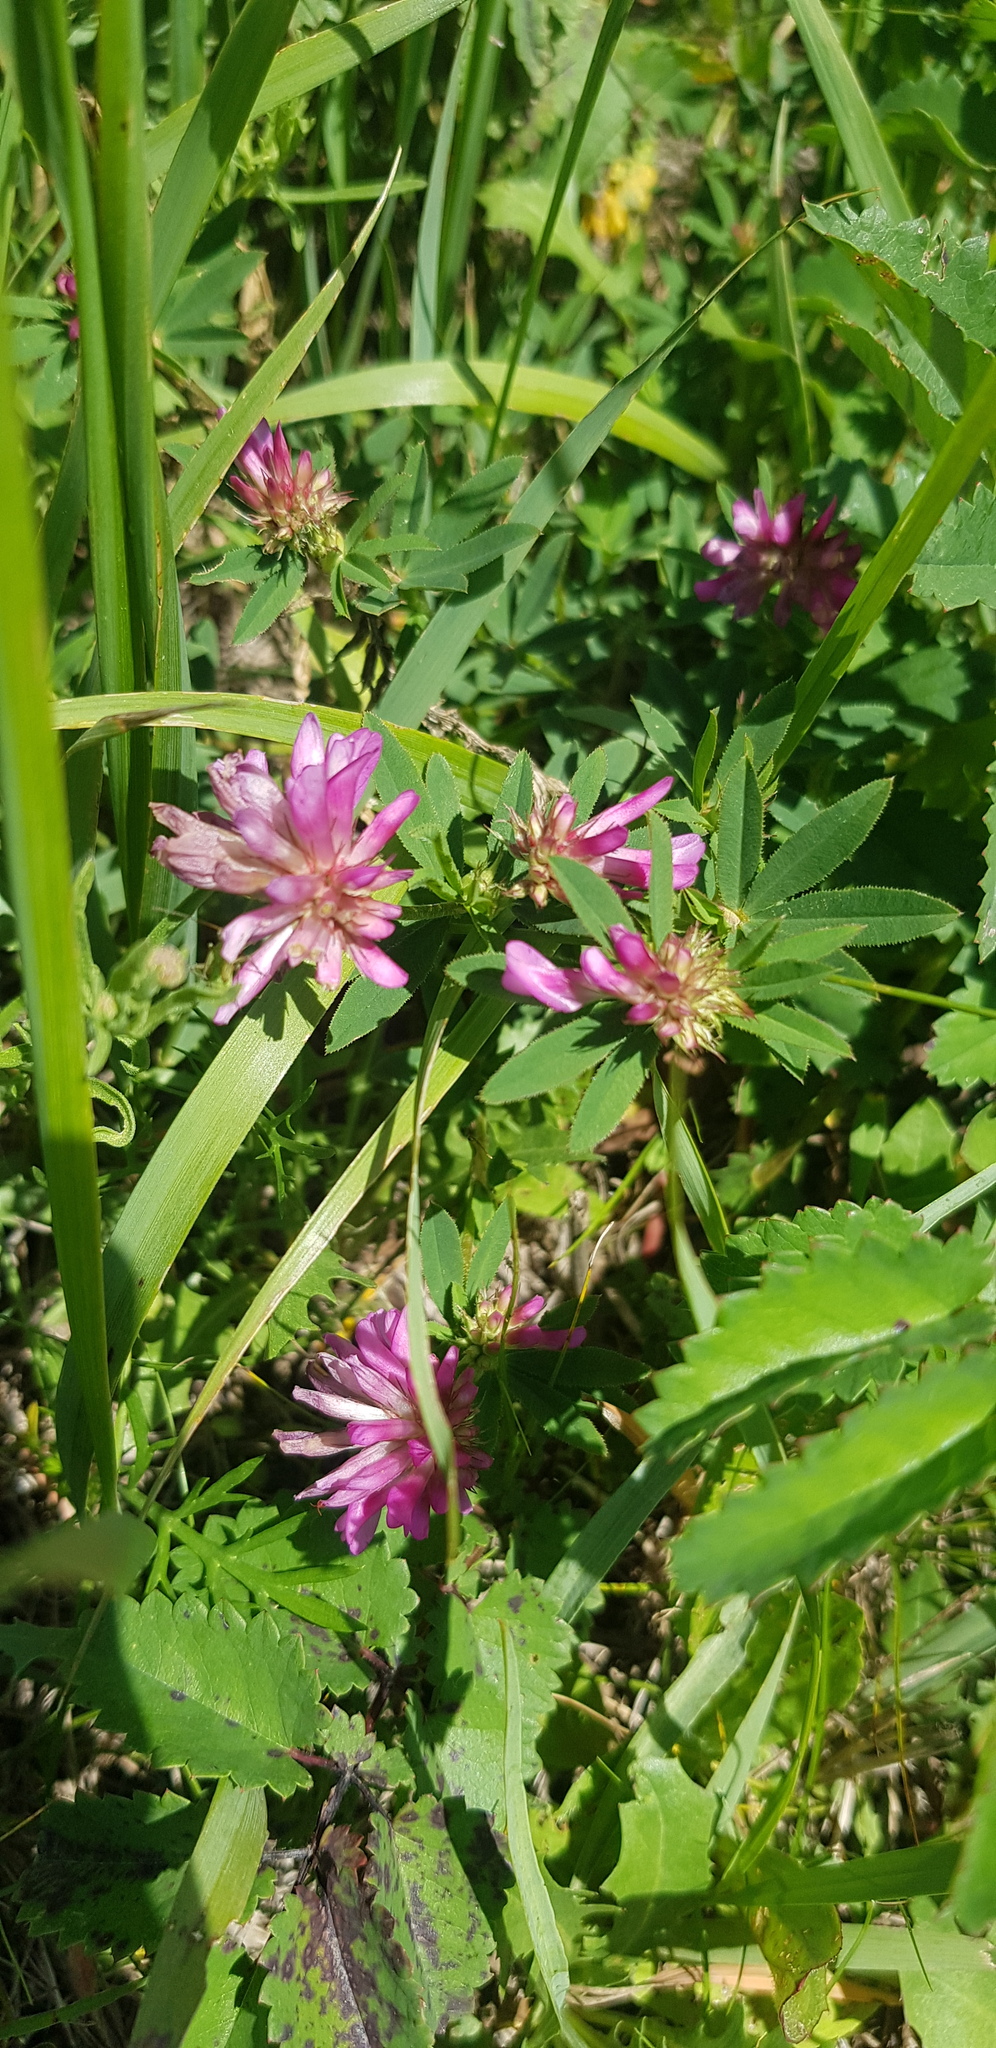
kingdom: Plantae
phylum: Tracheophyta
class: Magnoliopsida
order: Fabales
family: Fabaceae
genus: Trifolium
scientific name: Trifolium lupinaster
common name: Lupine clover
